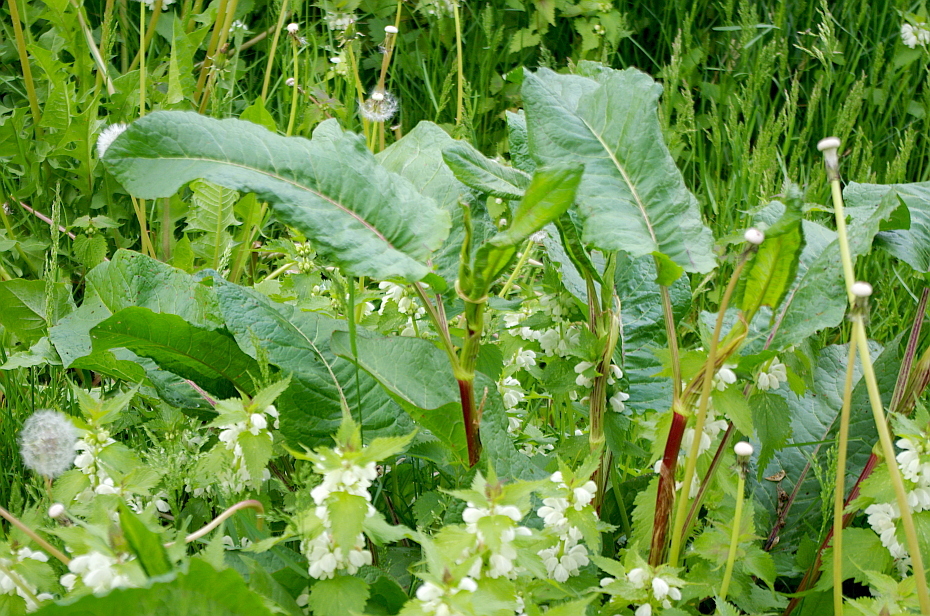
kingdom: Plantae
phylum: Tracheophyta
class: Magnoliopsida
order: Caryophyllales
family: Polygonaceae
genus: Rumex
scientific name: Rumex obtusifolius
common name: Bitter dock
